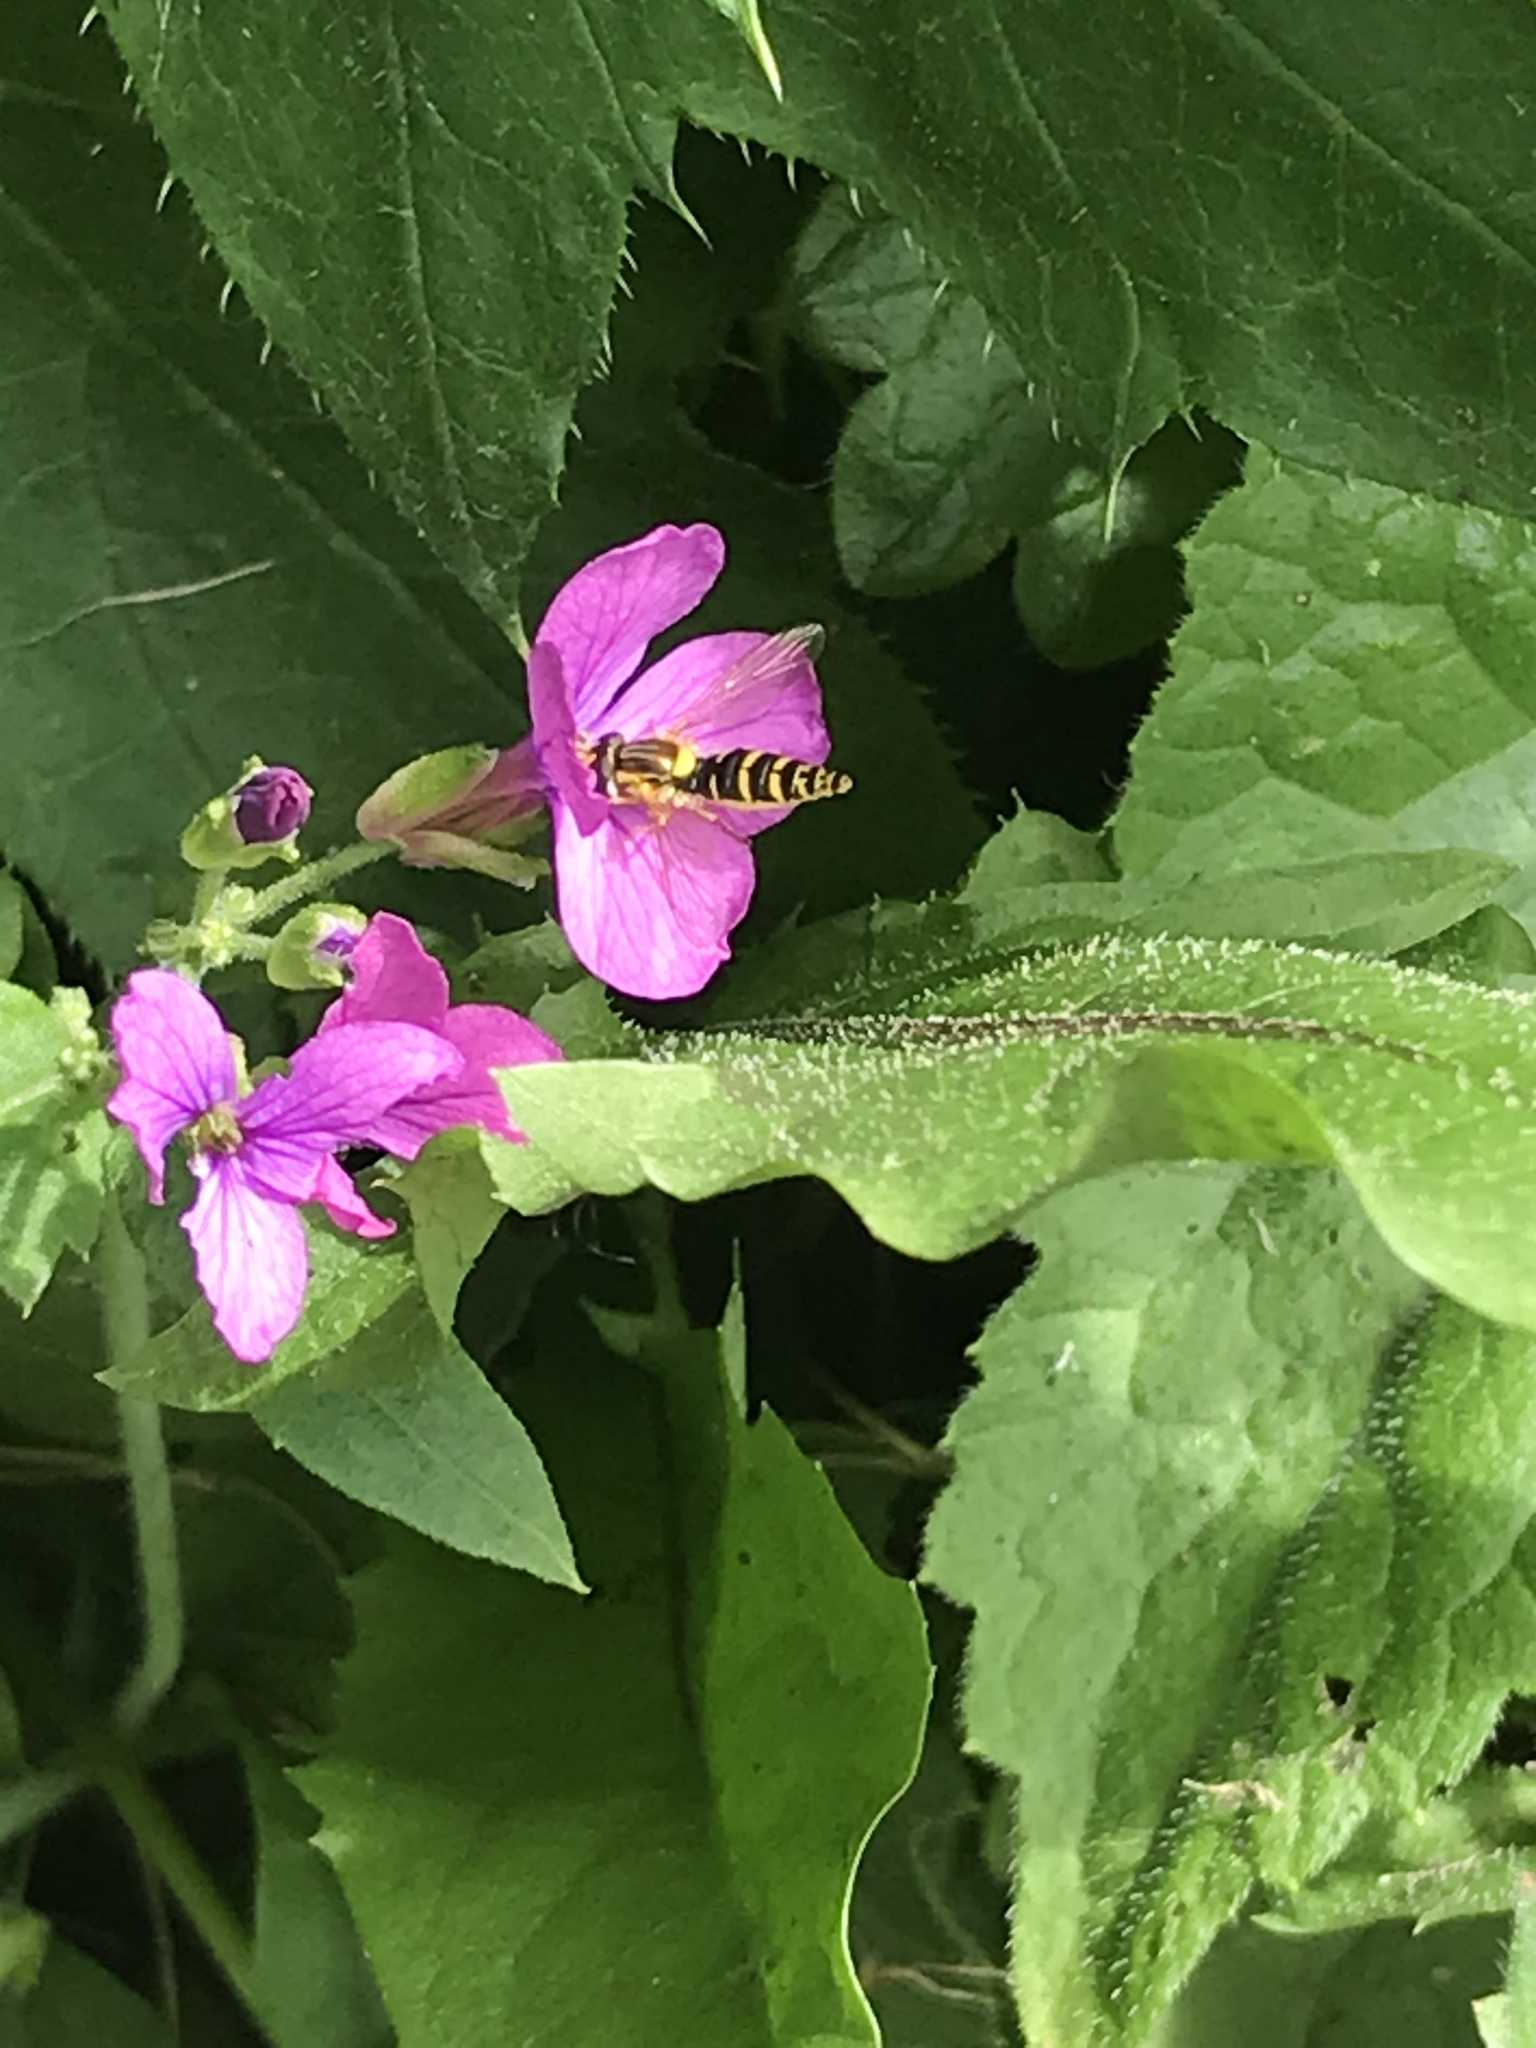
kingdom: Animalia
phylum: Arthropoda
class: Insecta
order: Diptera
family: Syrphidae
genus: Sphaerophoria
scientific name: Sphaerophoria
